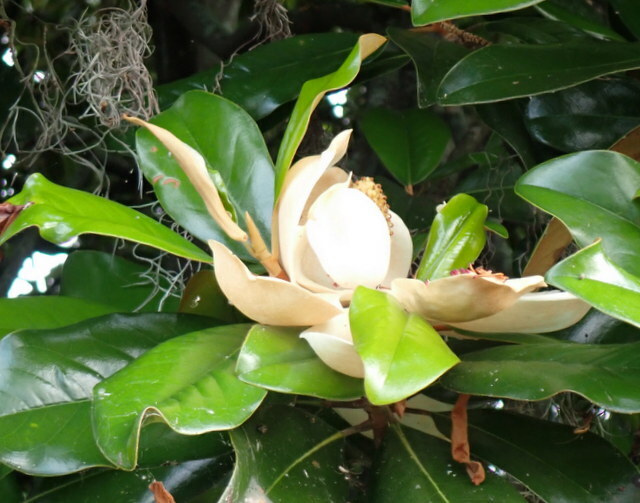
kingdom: Plantae
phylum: Tracheophyta
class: Magnoliopsida
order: Magnoliales
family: Magnoliaceae
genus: Magnolia
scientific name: Magnolia grandiflora
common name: Southern magnolia
